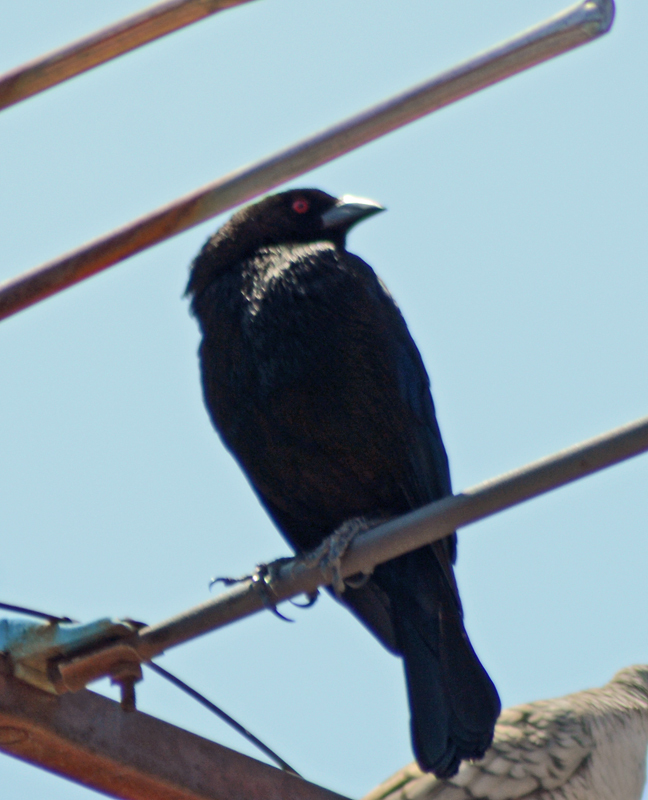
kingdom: Animalia
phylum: Chordata
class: Aves
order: Passeriformes
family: Icteridae
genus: Molothrus
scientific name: Molothrus aeneus
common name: Bronzed cowbird
